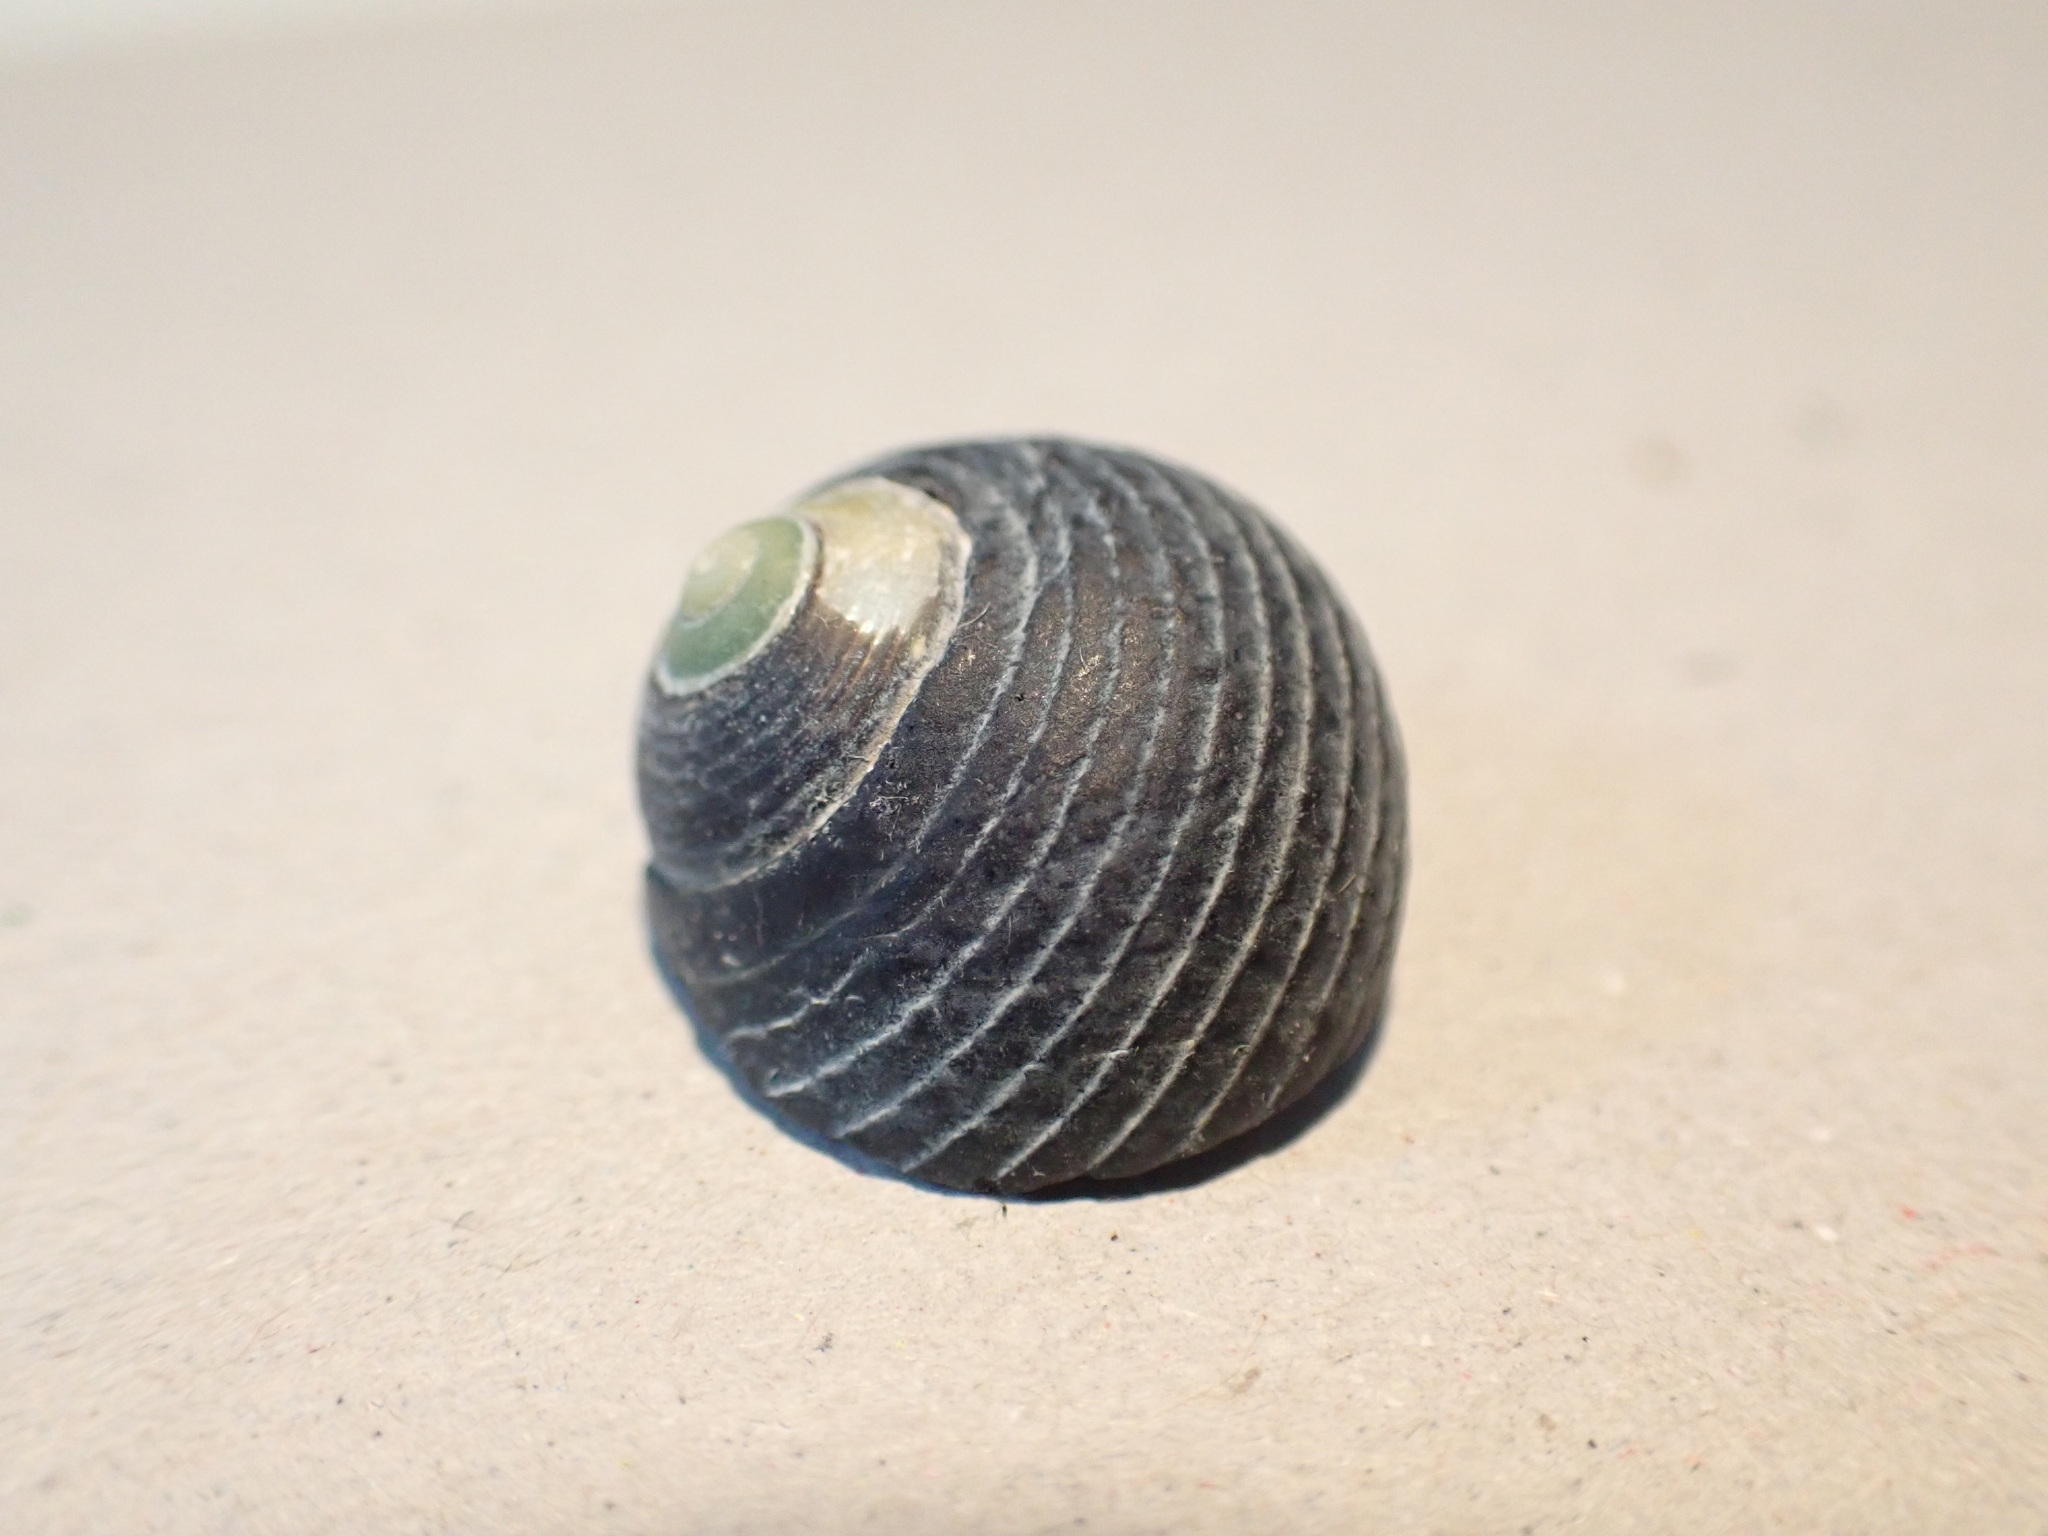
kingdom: Animalia
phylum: Mollusca
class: Gastropoda
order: Trochida
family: Trochidae
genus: Diloma
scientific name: Diloma zelandicum
